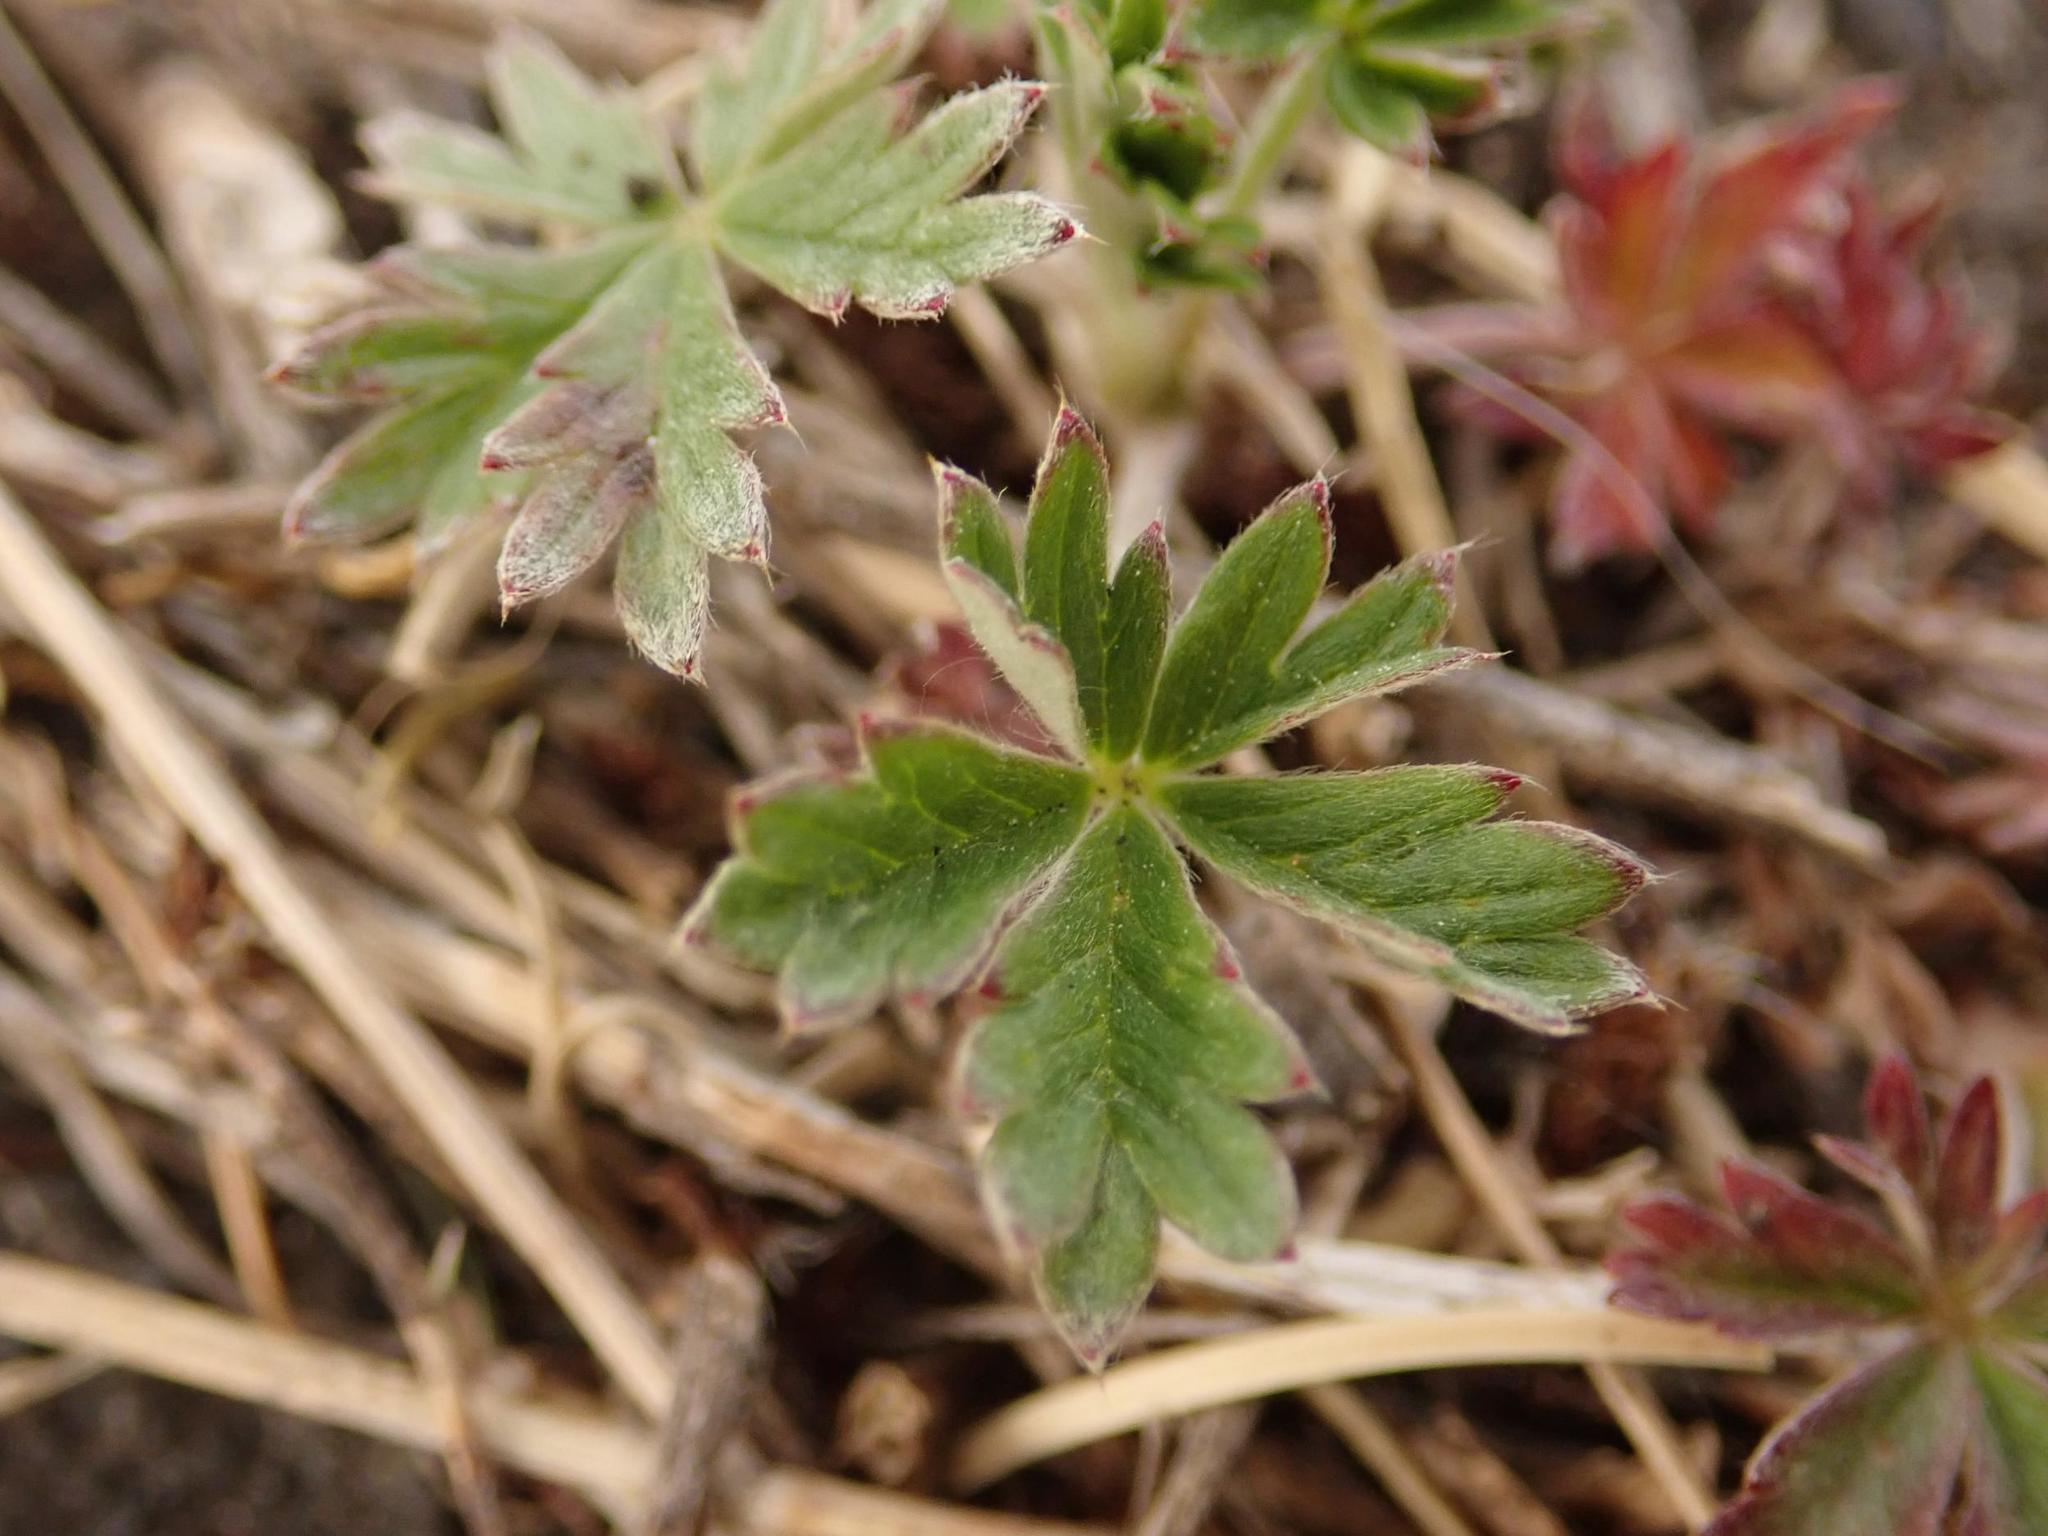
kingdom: Plantae
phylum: Tracheophyta
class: Magnoliopsida
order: Rosales
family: Rosaceae
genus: Potentilla
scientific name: Potentilla argentea
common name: Hoary cinquefoil
